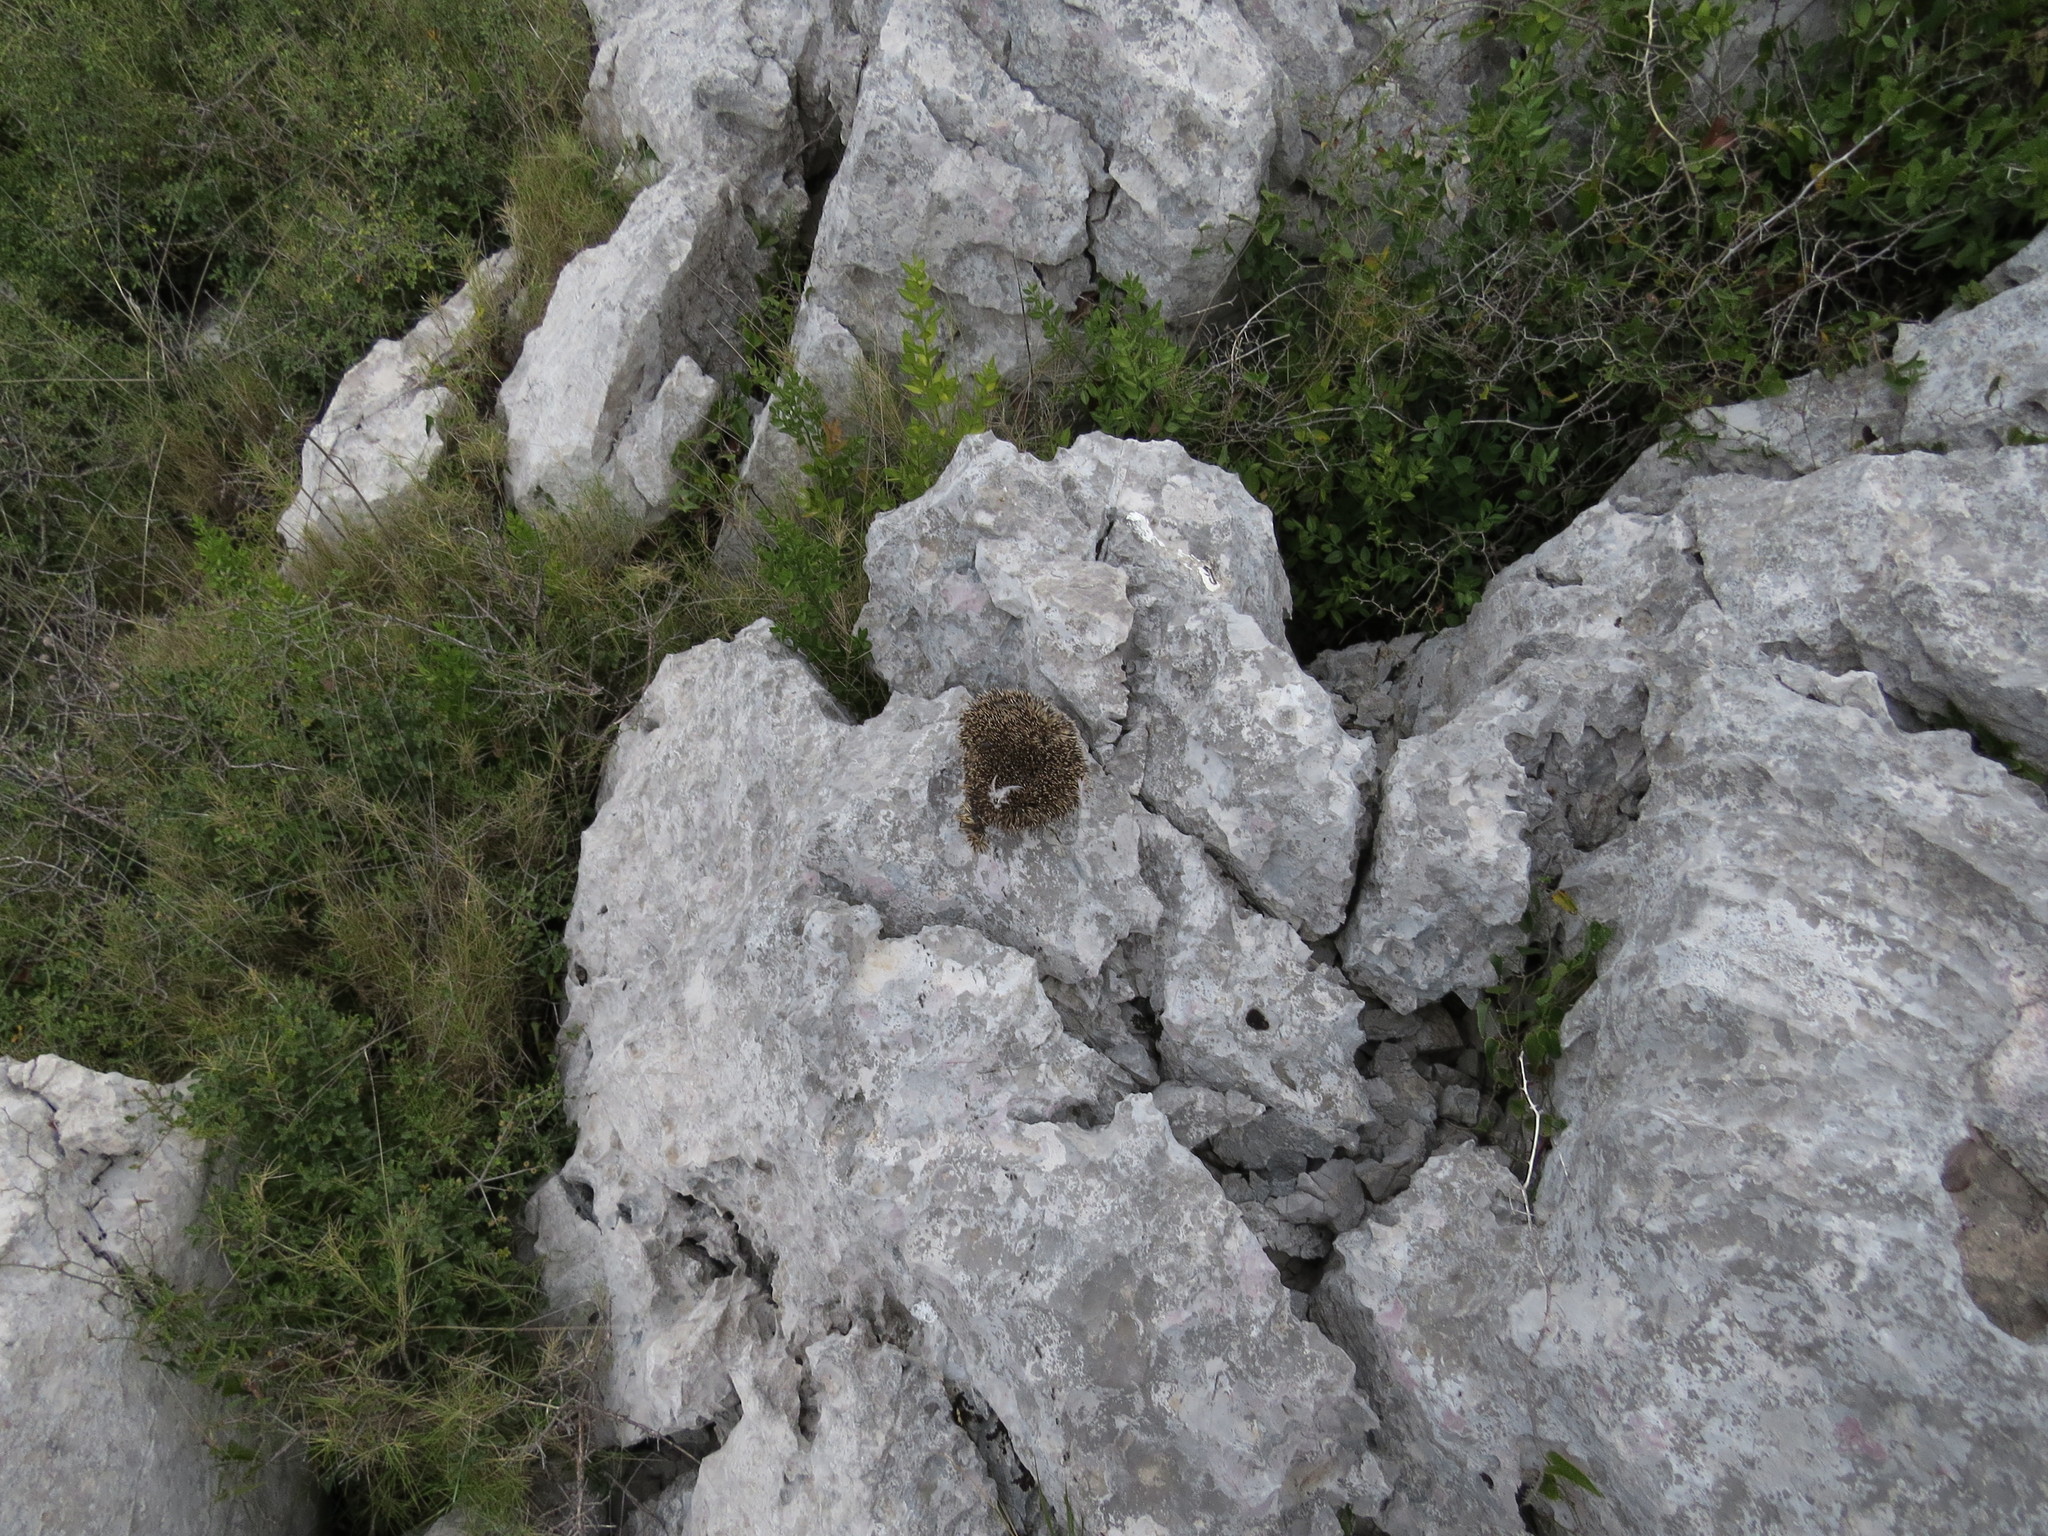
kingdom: Animalia
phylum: Chordata
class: Mammalia
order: Erinaceomorpha
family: Erinaceidae
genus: Erinaceus
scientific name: Erinaceus europaeus
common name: West european hedgehog
